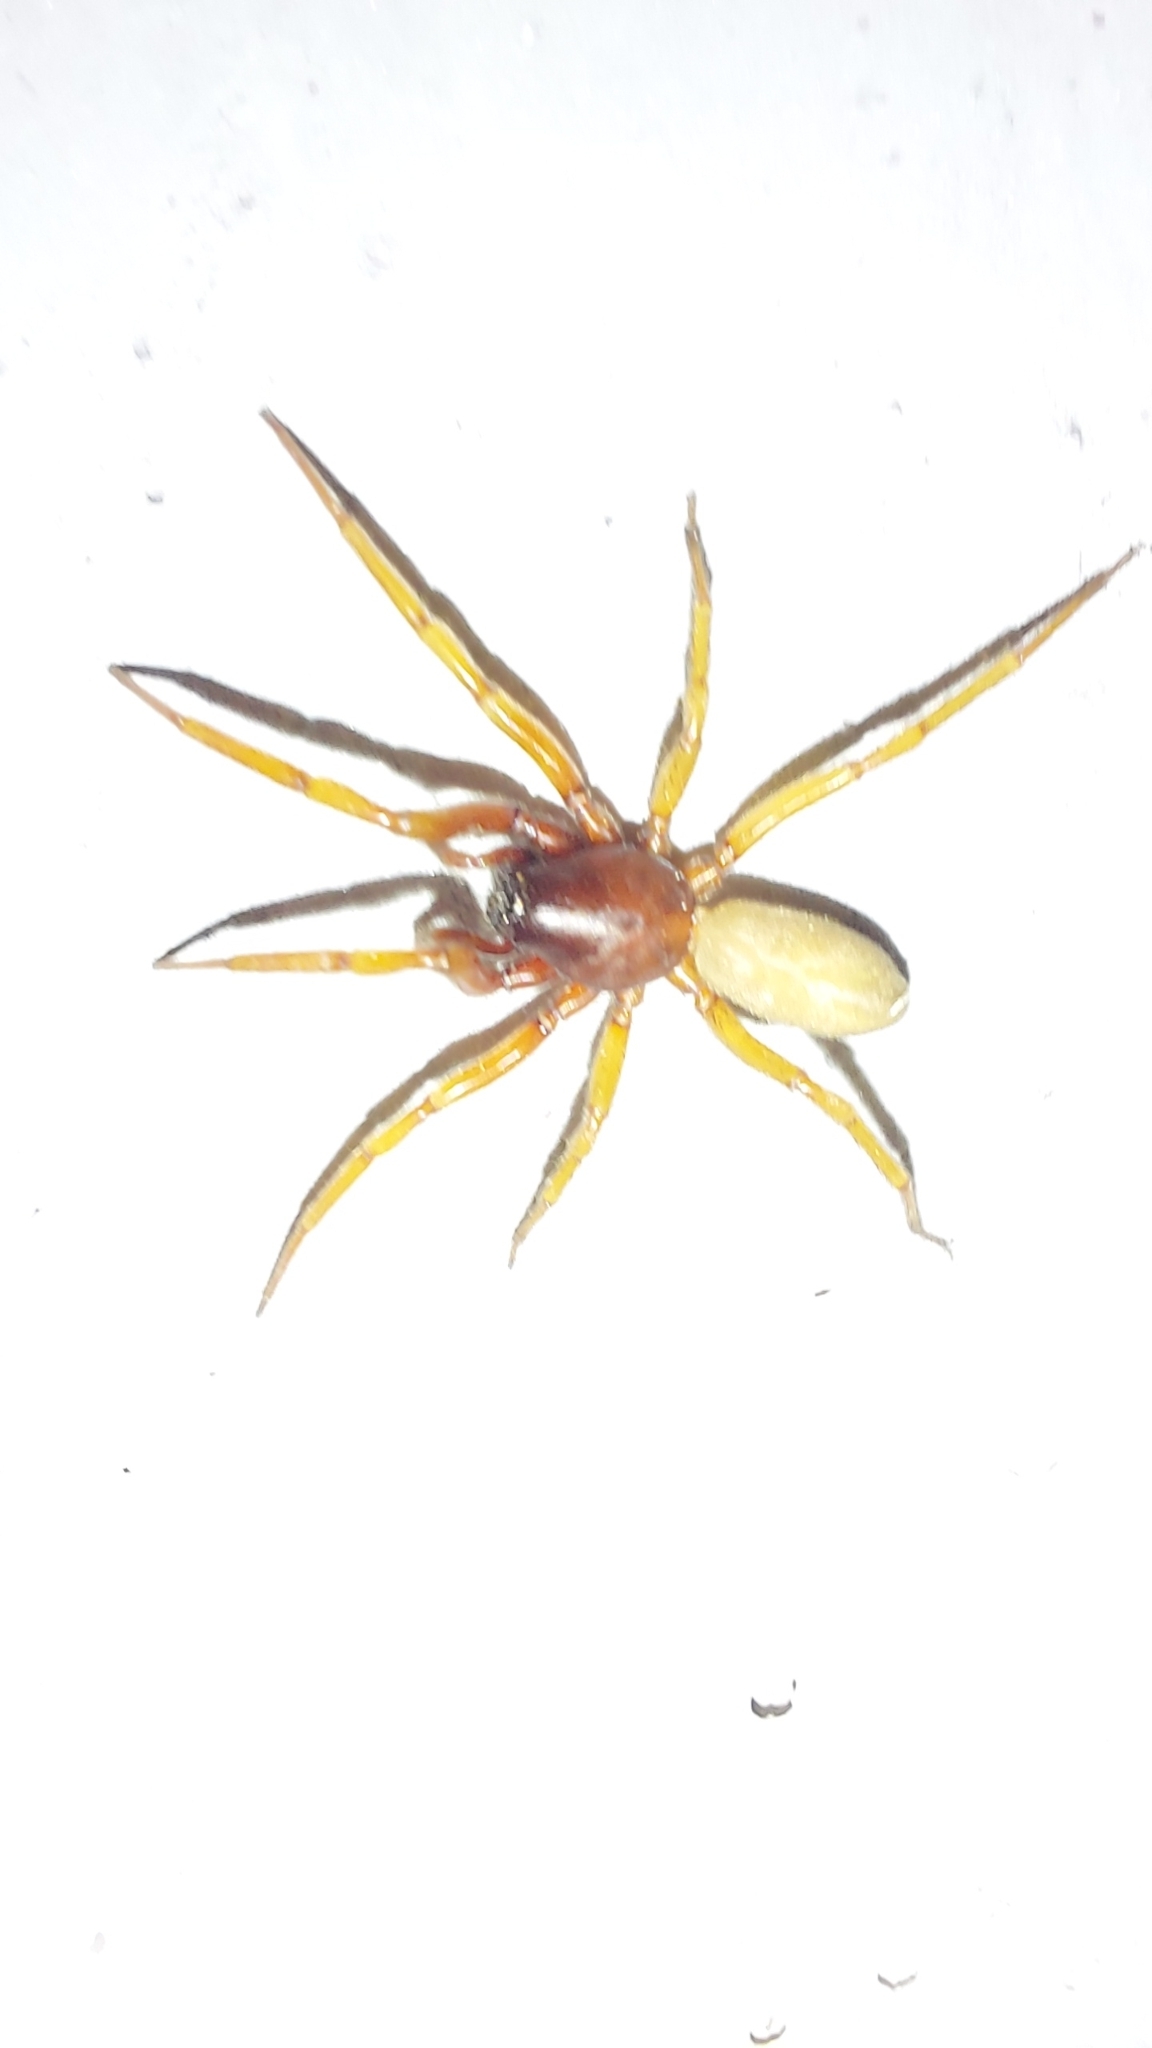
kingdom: Animalia
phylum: Arthropoda
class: Arachnida
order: Araneae
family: Dysderidae
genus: Harpactea
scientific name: Harpactea rubicunda
